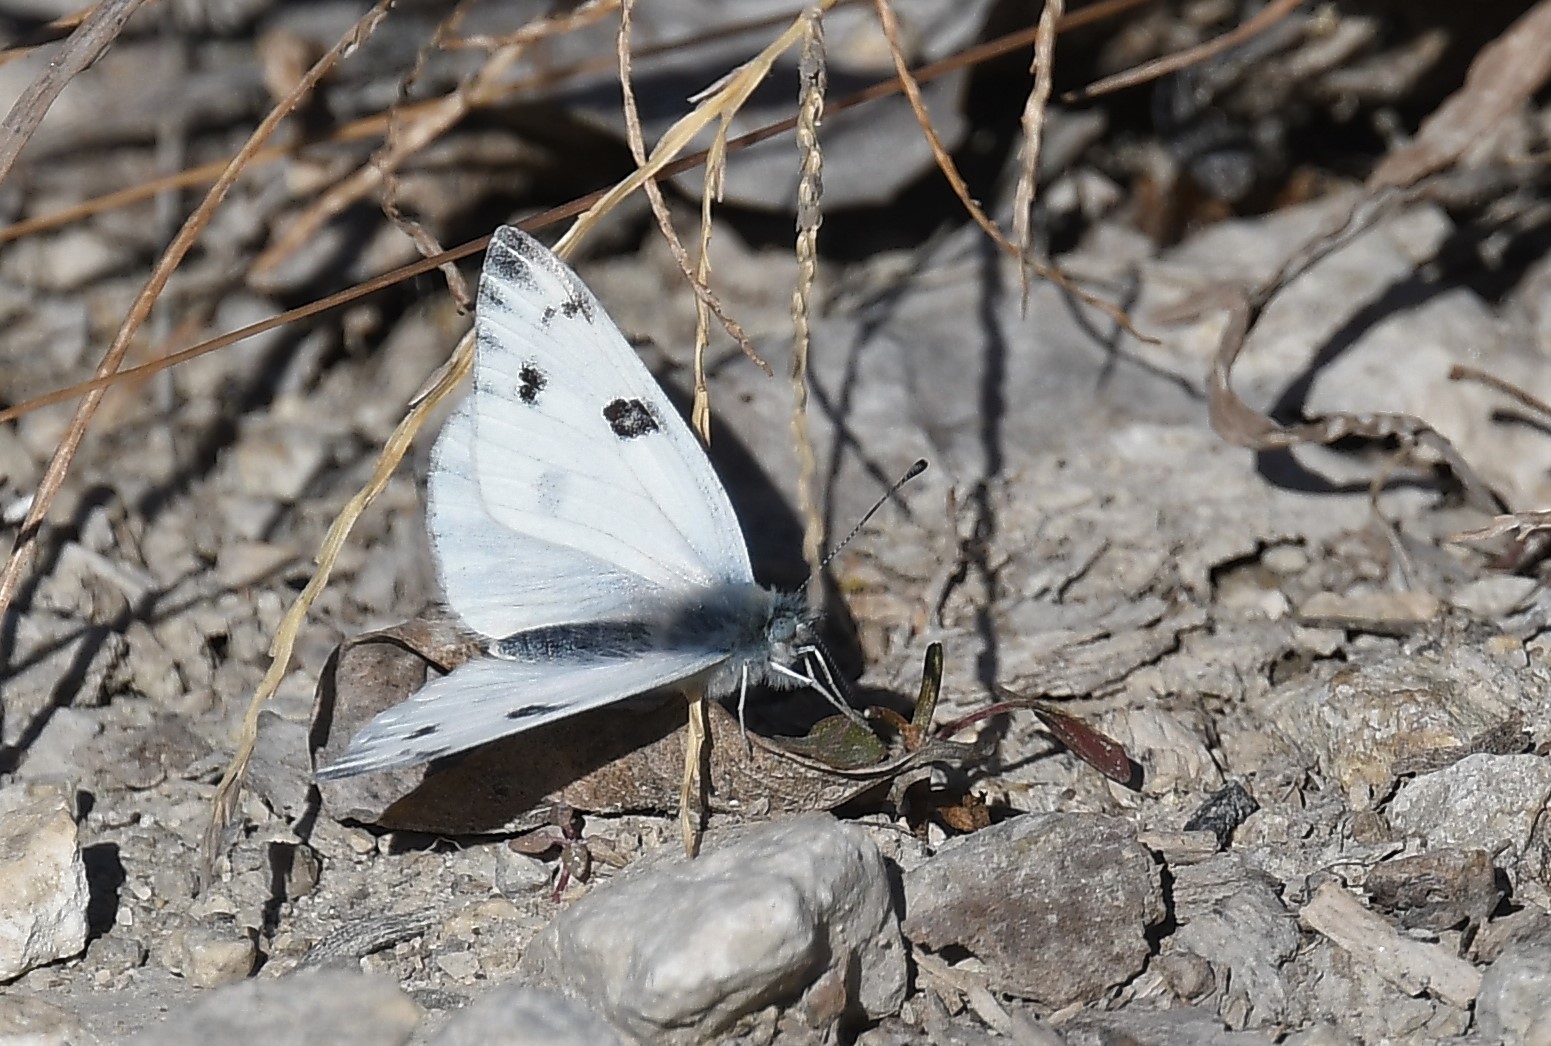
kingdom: Animalia
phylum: Arthropoda
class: Insecta
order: Lepidoptera
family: Pieridae
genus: Pontia
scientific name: Pontia protodice
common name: Checkered white
